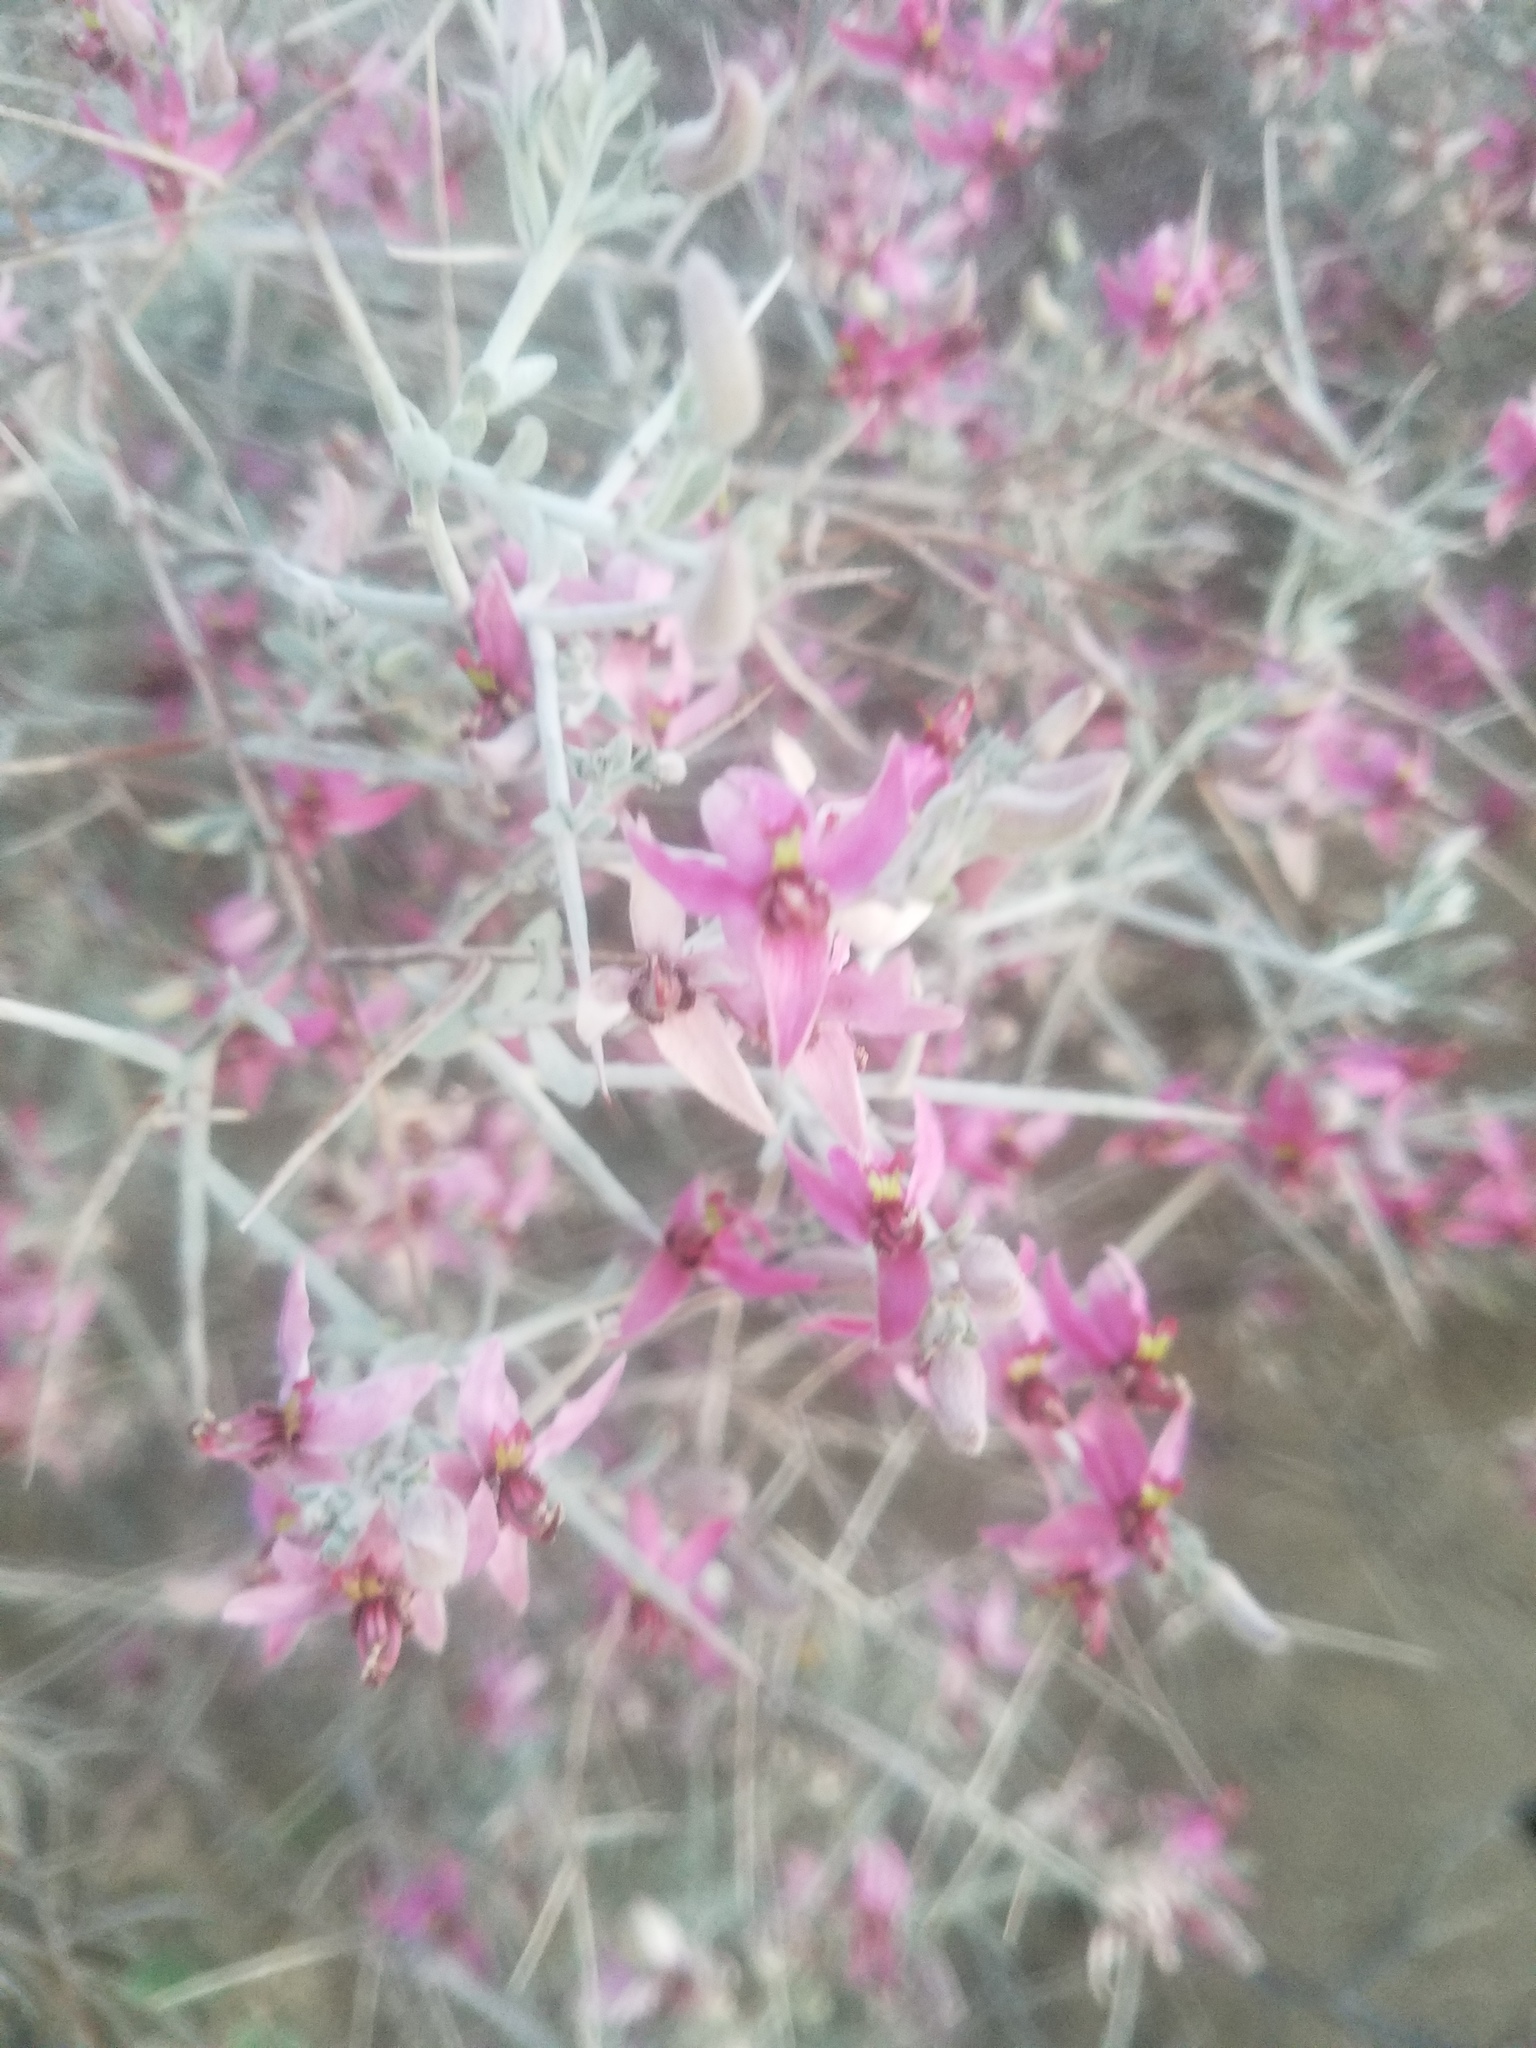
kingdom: Plantae
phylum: Tracheophyta
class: Magnoliopsida
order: Zygophyllales
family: Krameriaceae
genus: Krameria
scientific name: Krameria bicolor
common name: White ratany
